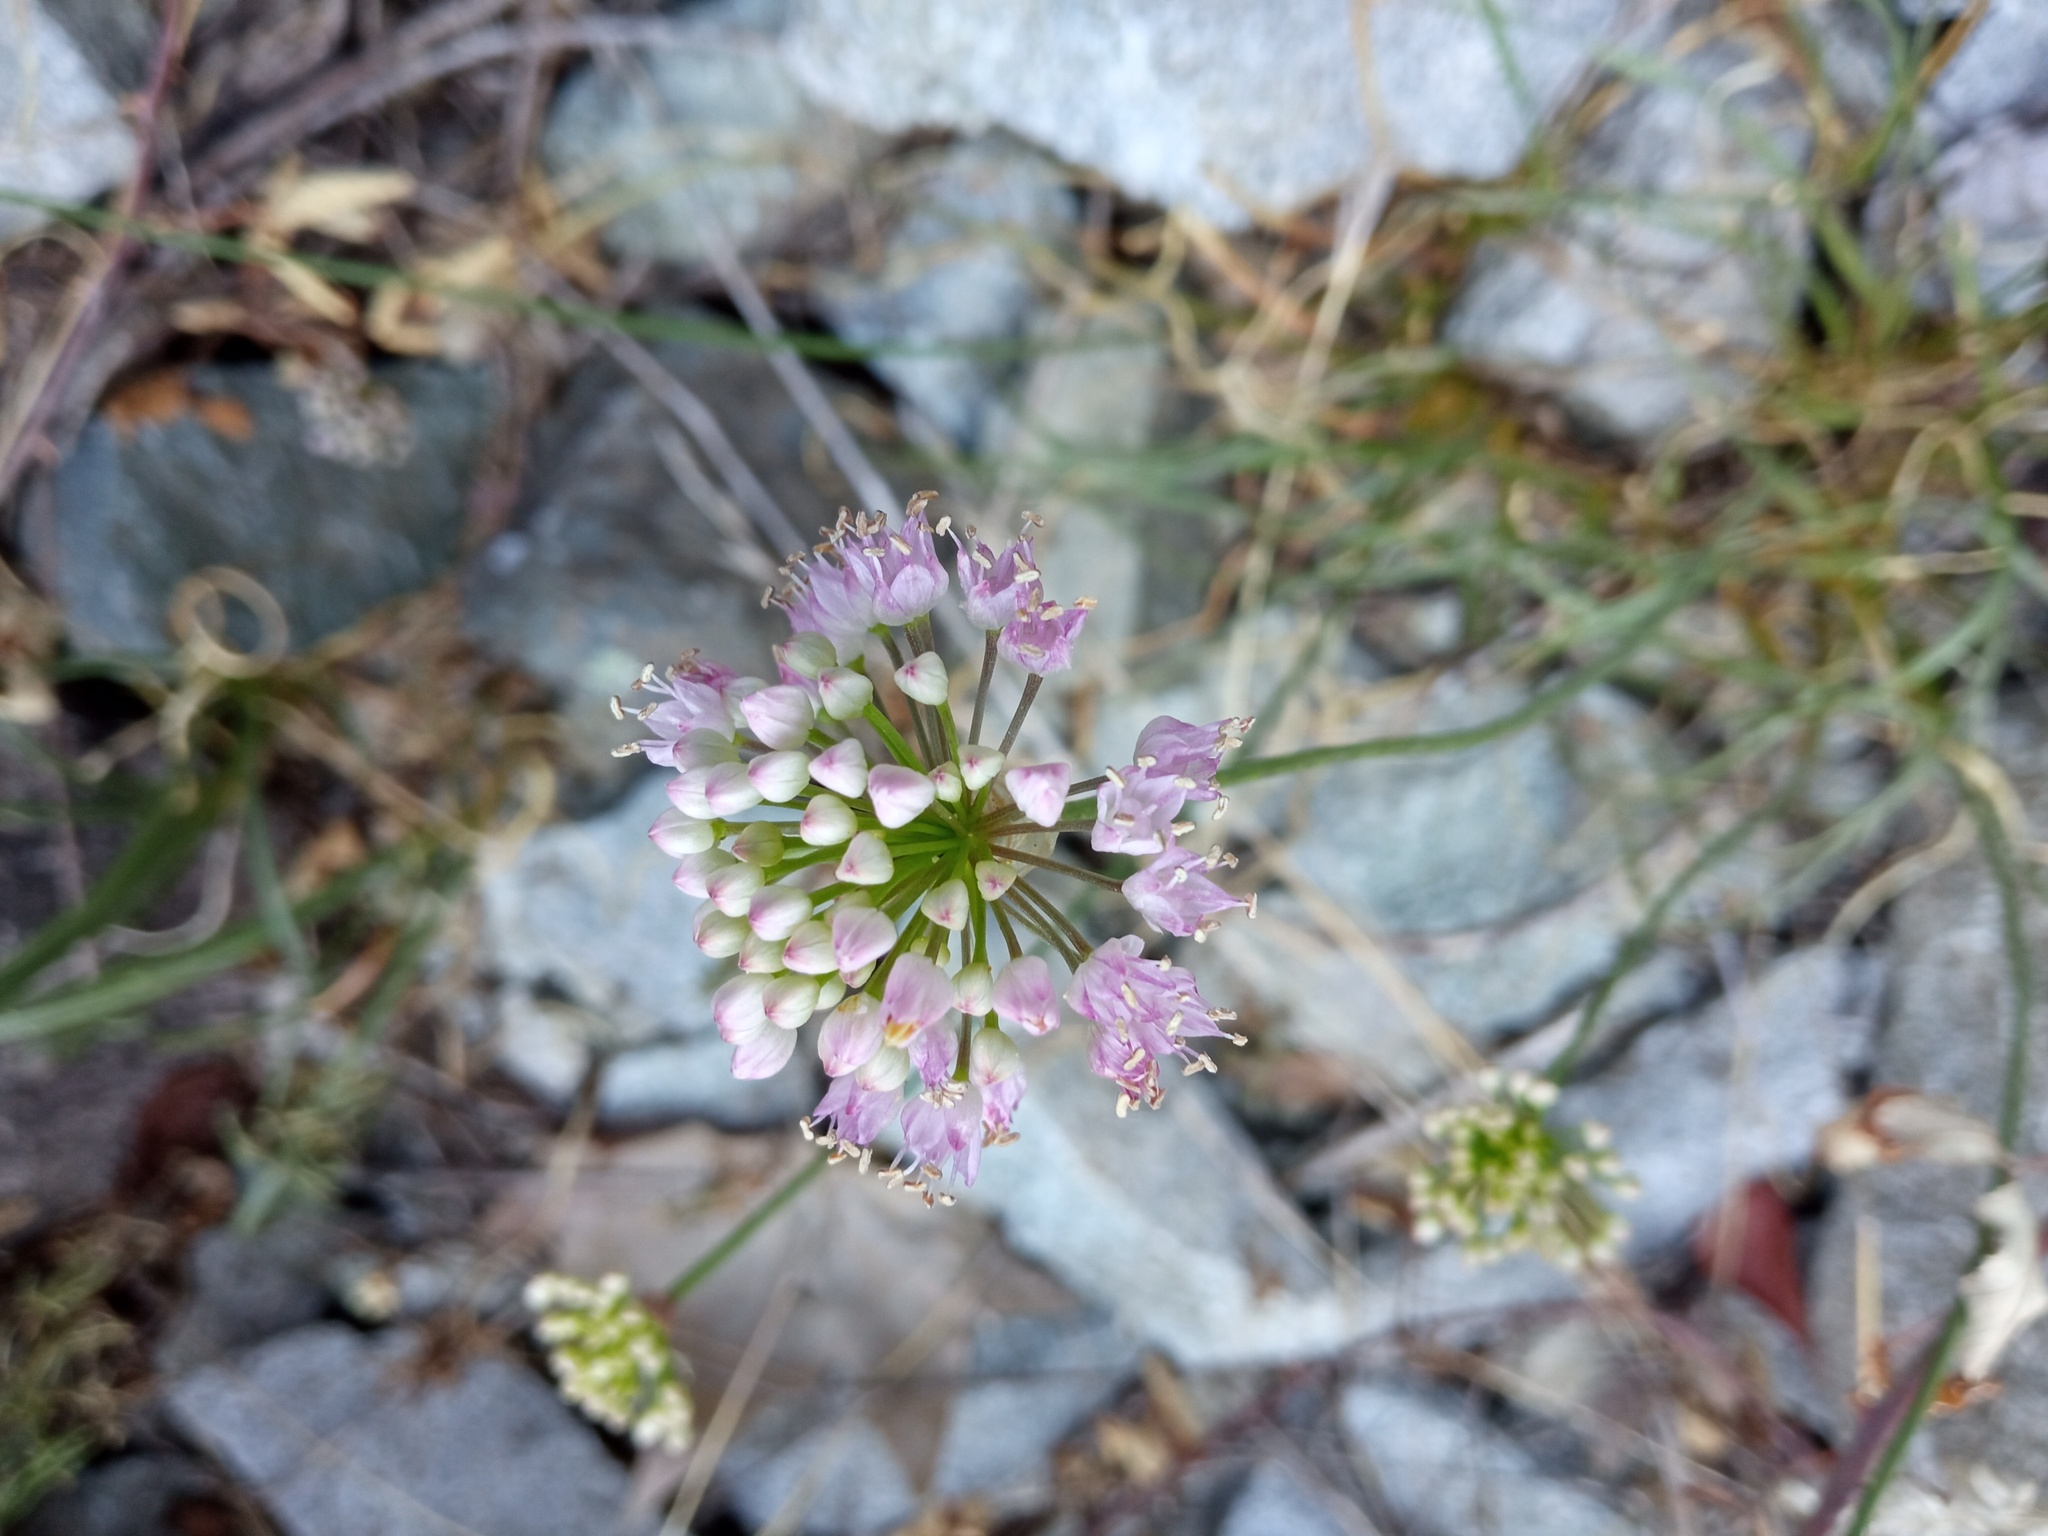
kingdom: Plantae
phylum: Tracheophyta
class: Liliopsida
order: Asparagales
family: Amaryllidaceae
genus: Allium
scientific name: Allium lusitanicum
